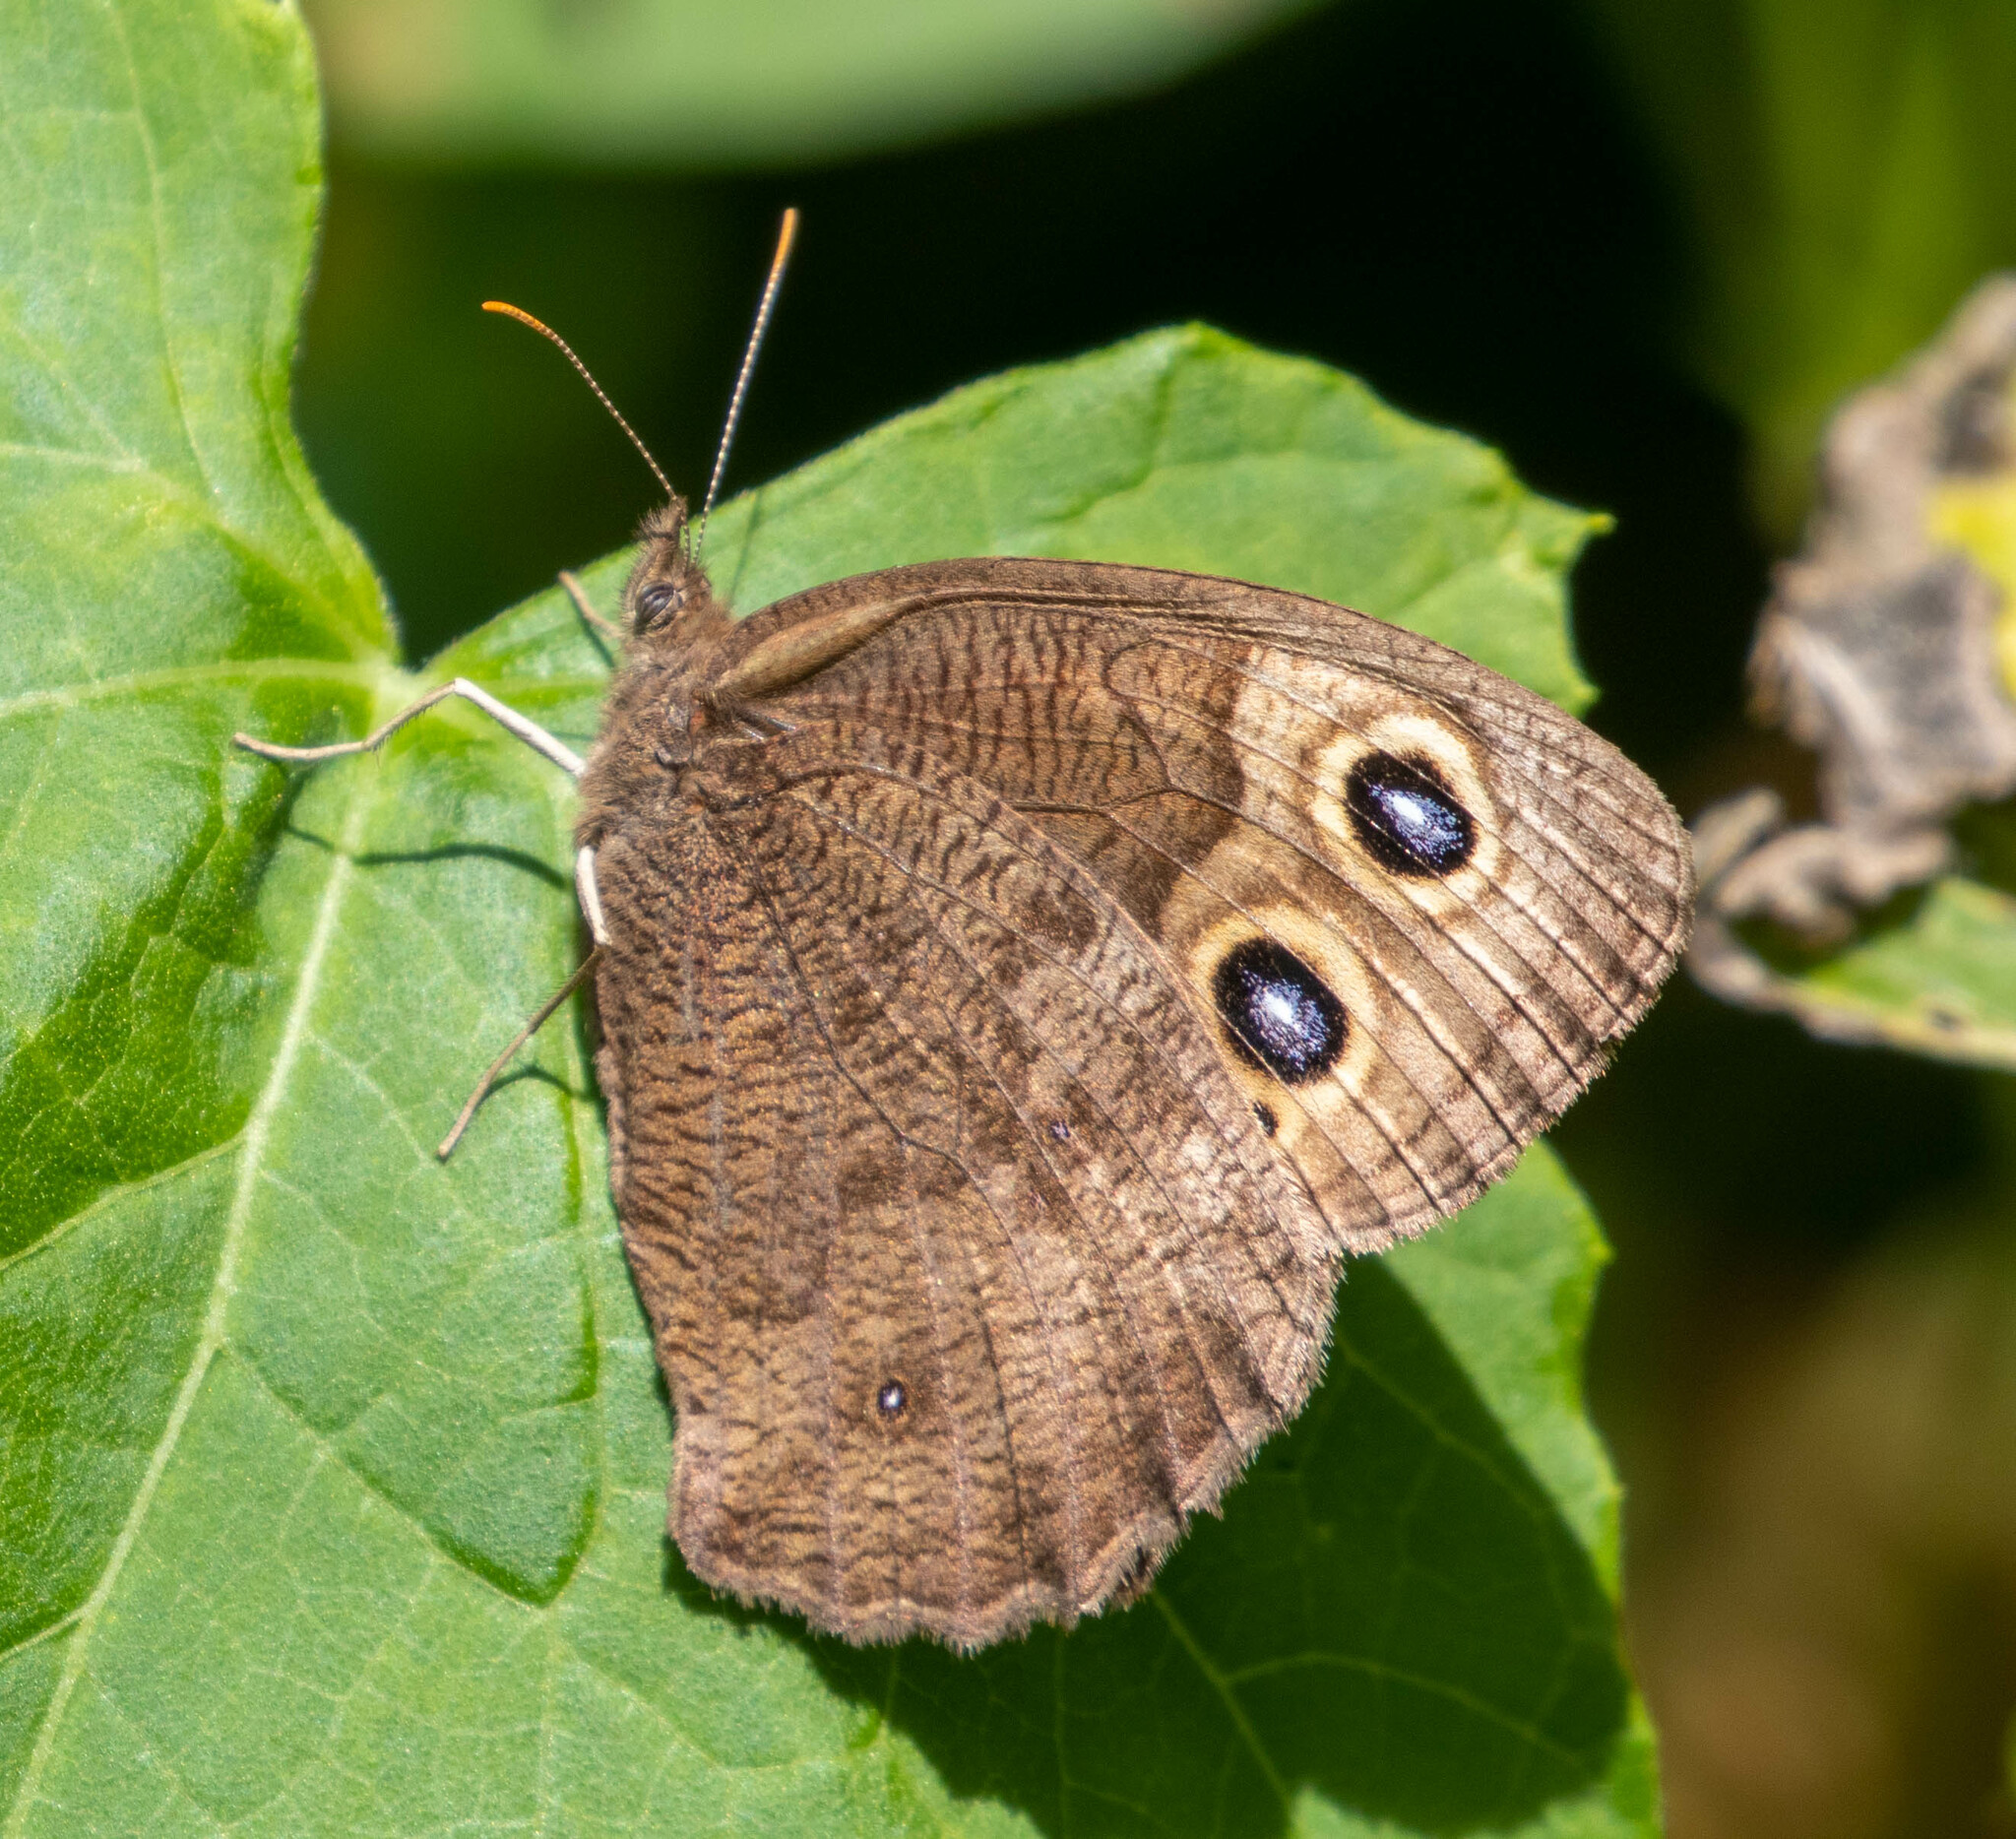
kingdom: Animalia
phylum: Arthropoda
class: Insecta
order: Lepidoptera
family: Nymphalidae
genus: Cercyonis
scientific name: Cercyonis pegala
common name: Common wood-nymph
